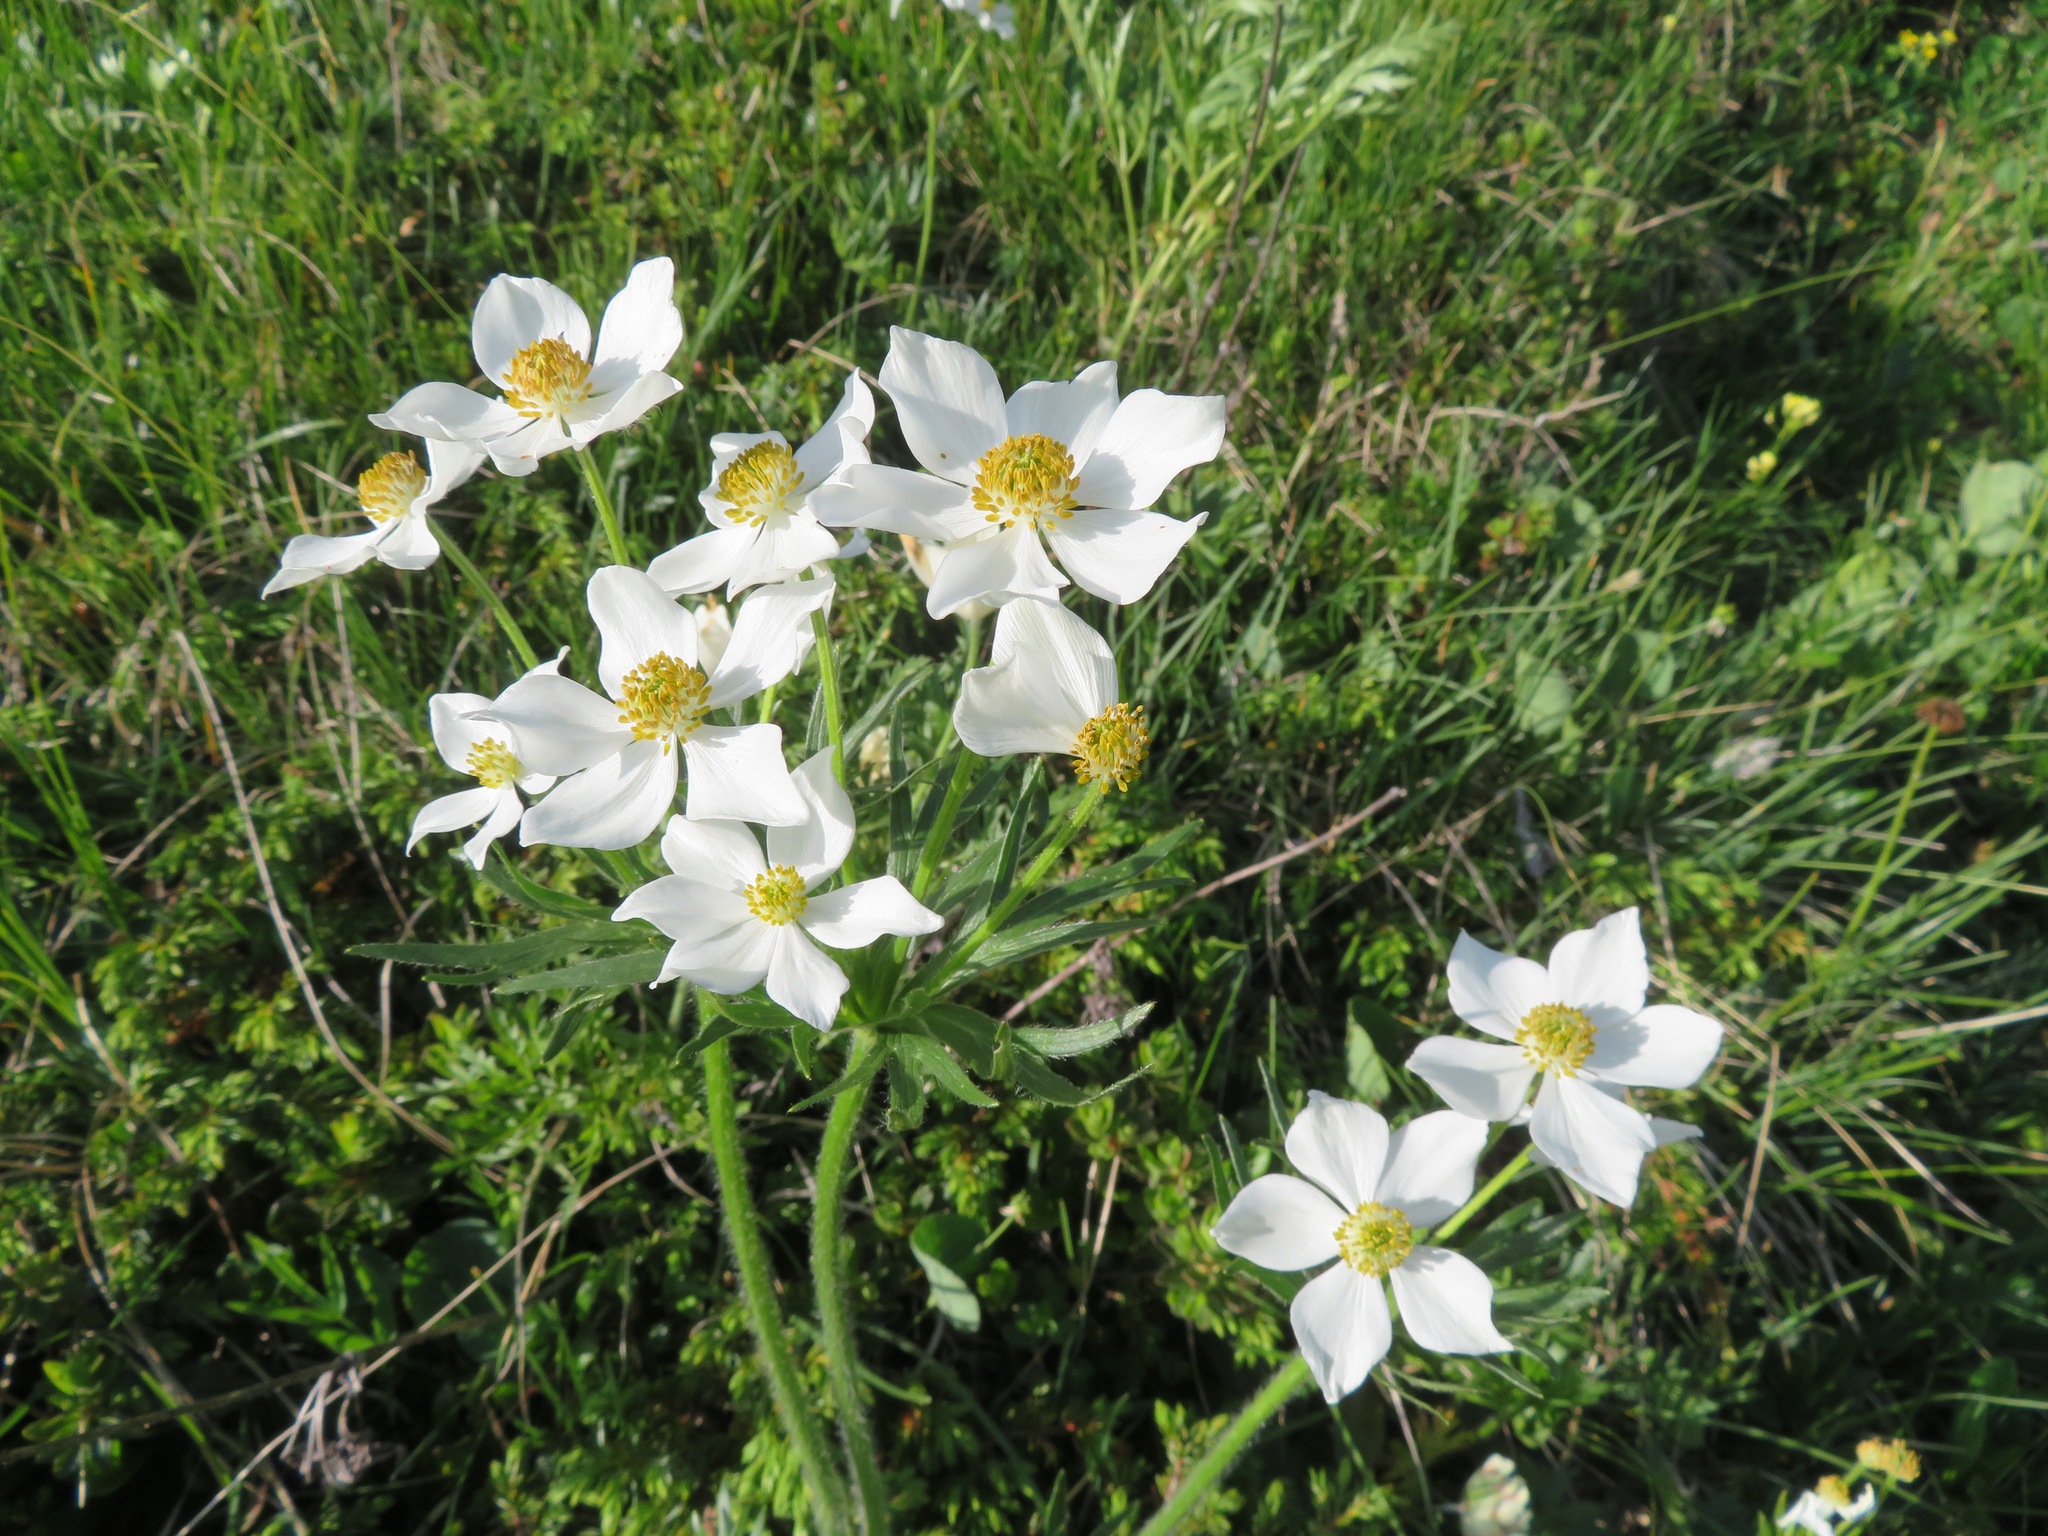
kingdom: Plantae
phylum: Tracheophyta
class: Magnoliopsida
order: Ranunculales
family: Ranunculaceae
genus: Anemonastrum
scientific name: Anemonastrum narcissiflorum
